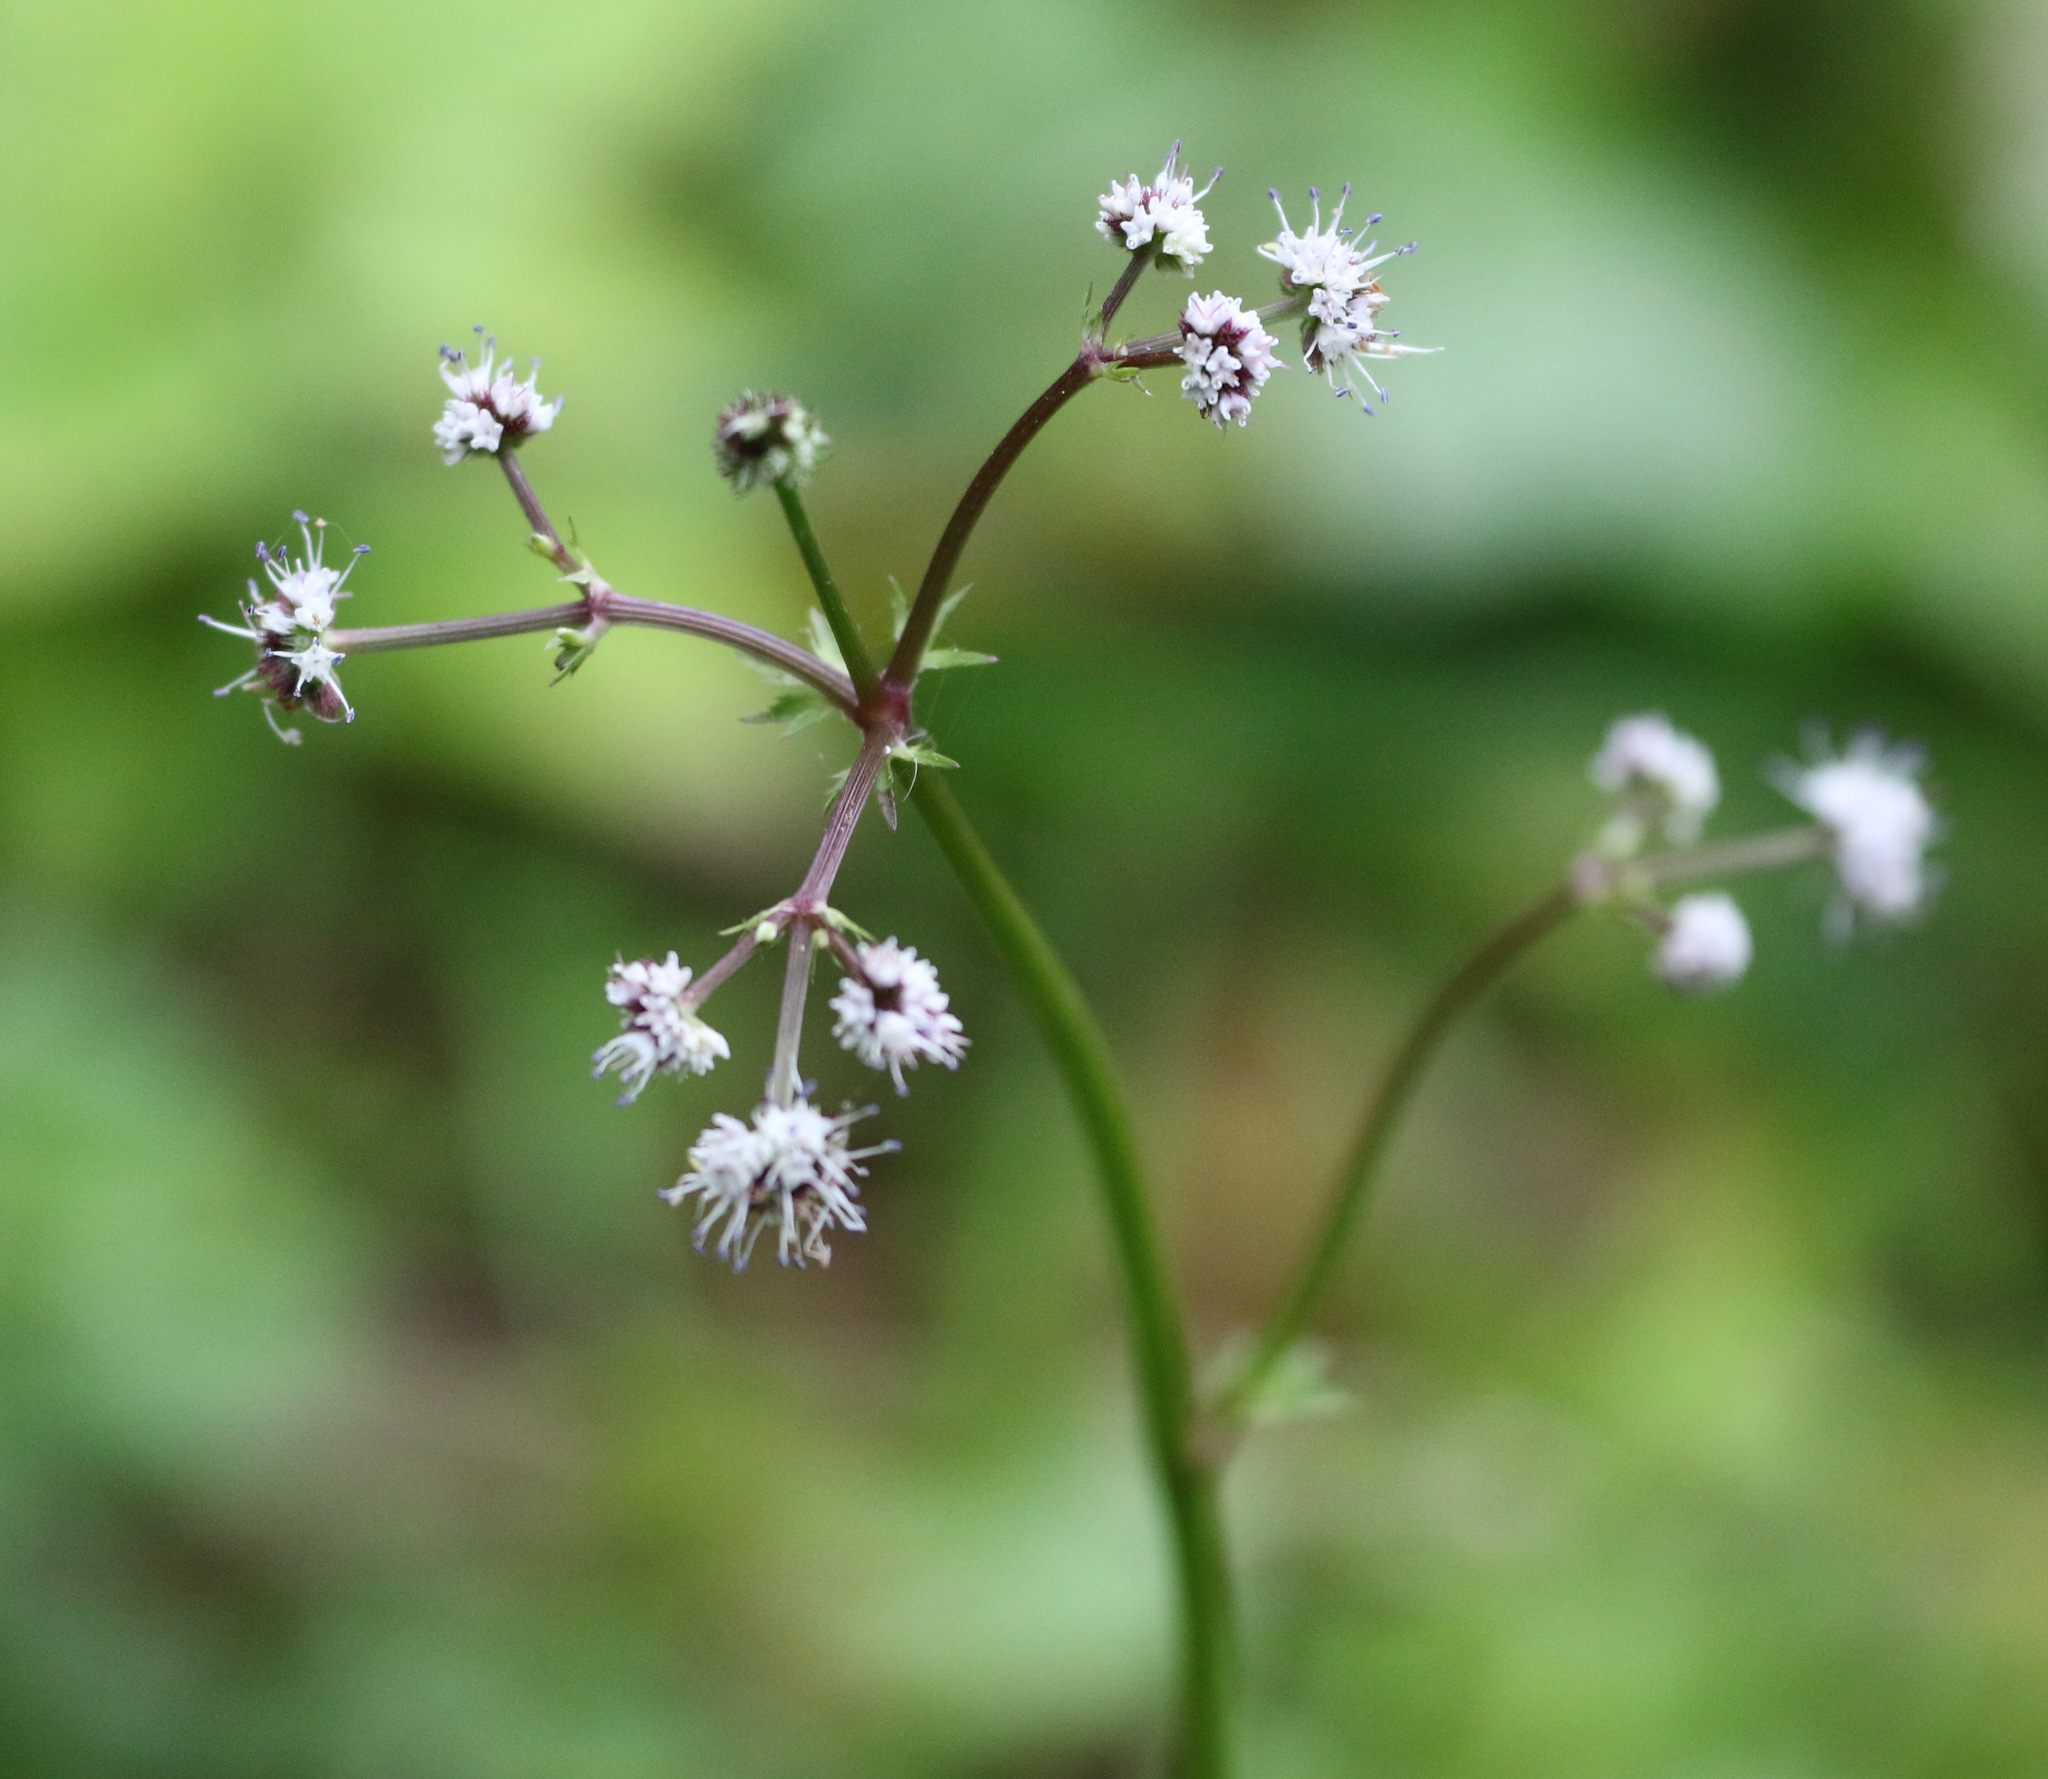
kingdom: Plantae
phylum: Tracheophyta
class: Magnoliopsida
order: Apiales
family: Apiaceae
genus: Sanicula
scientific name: Sanicula europaea
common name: Sanicle
